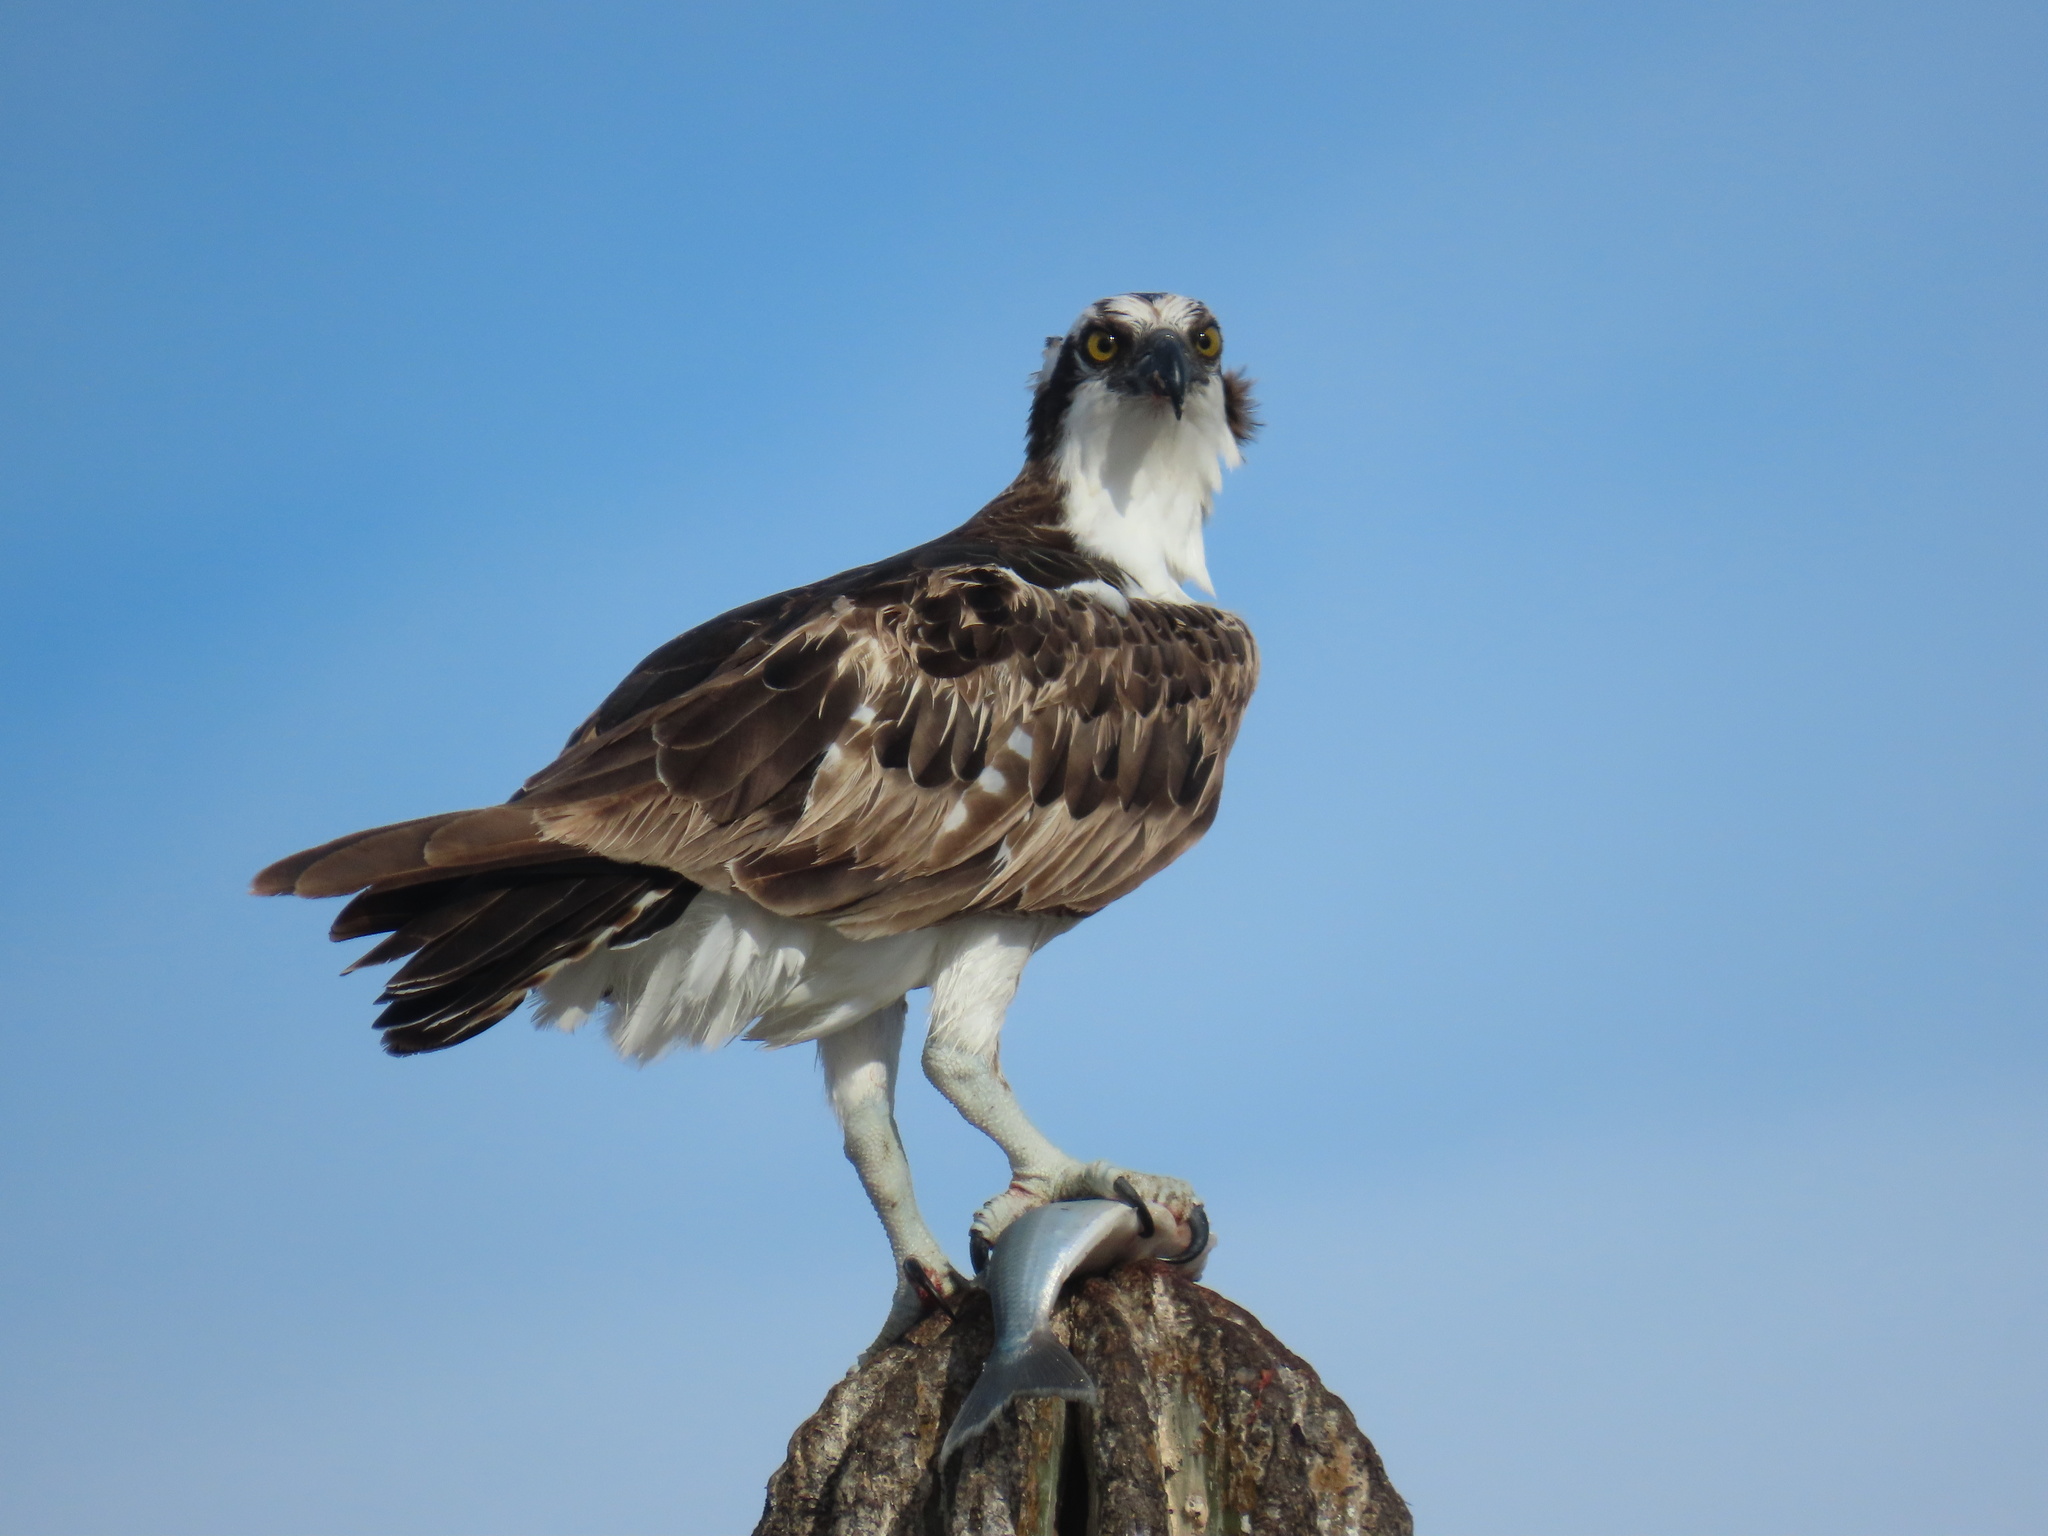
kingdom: Animalia
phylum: Chordata
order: Atheriniformes
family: Atherinopsidae
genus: Atherinopsis
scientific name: Atherinopsis californiensis
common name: Jack silverside
